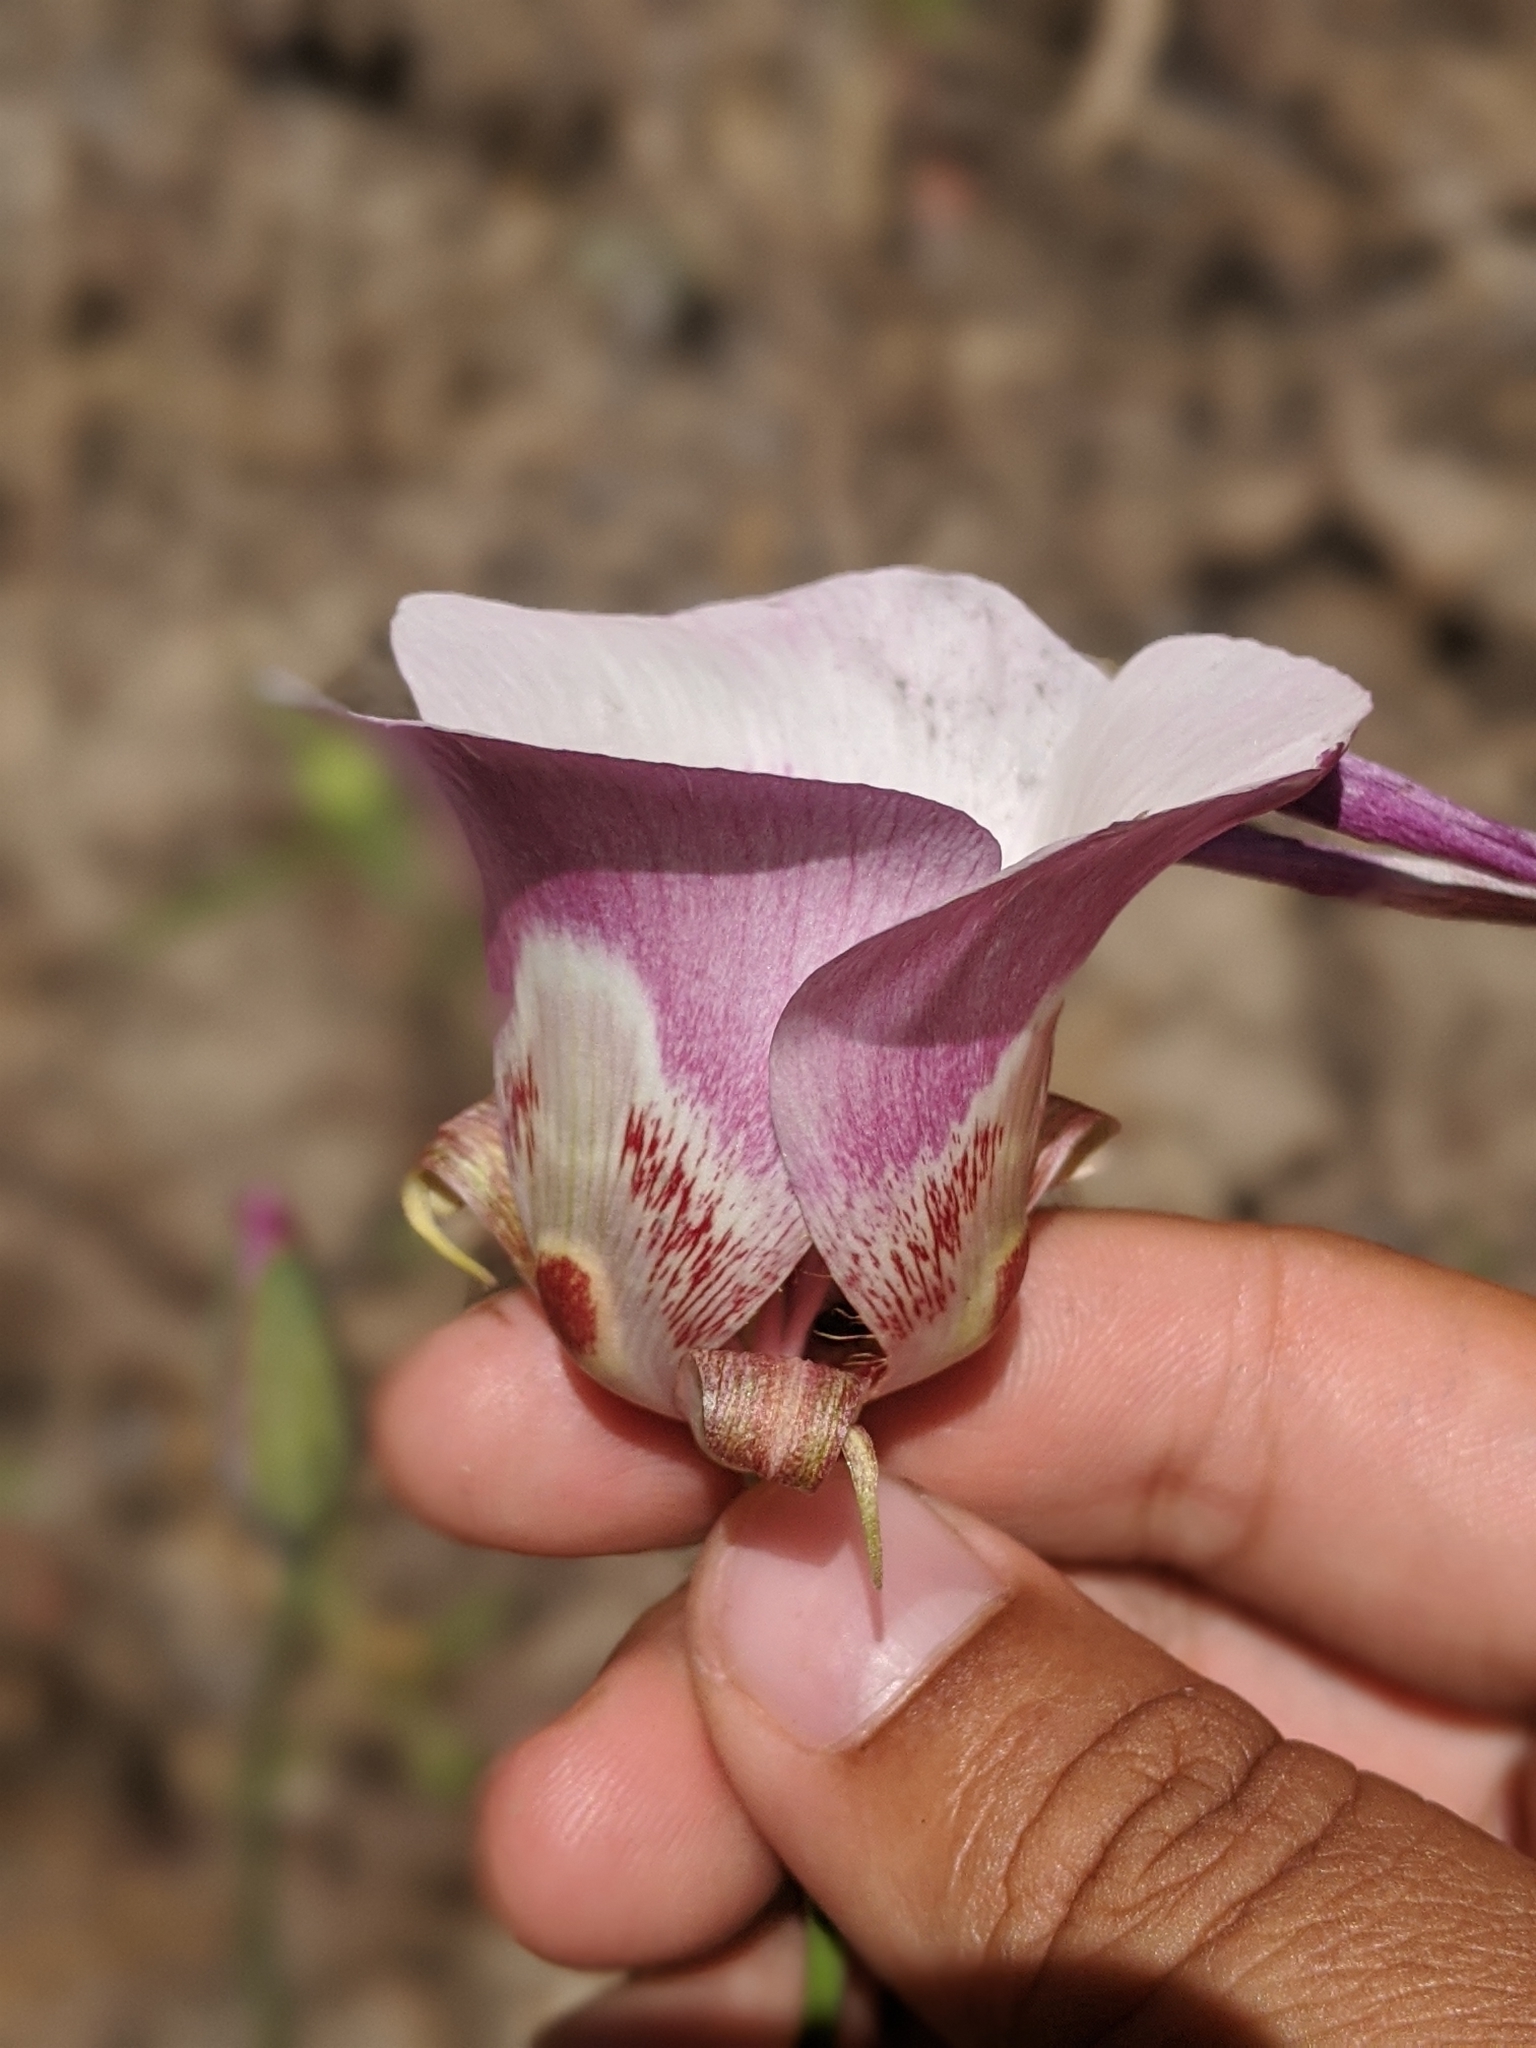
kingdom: Plantae
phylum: Tracheophyta
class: Liliopsida
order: Liliales
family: Liliaceae
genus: Calochortus
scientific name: Calochortus venustus
